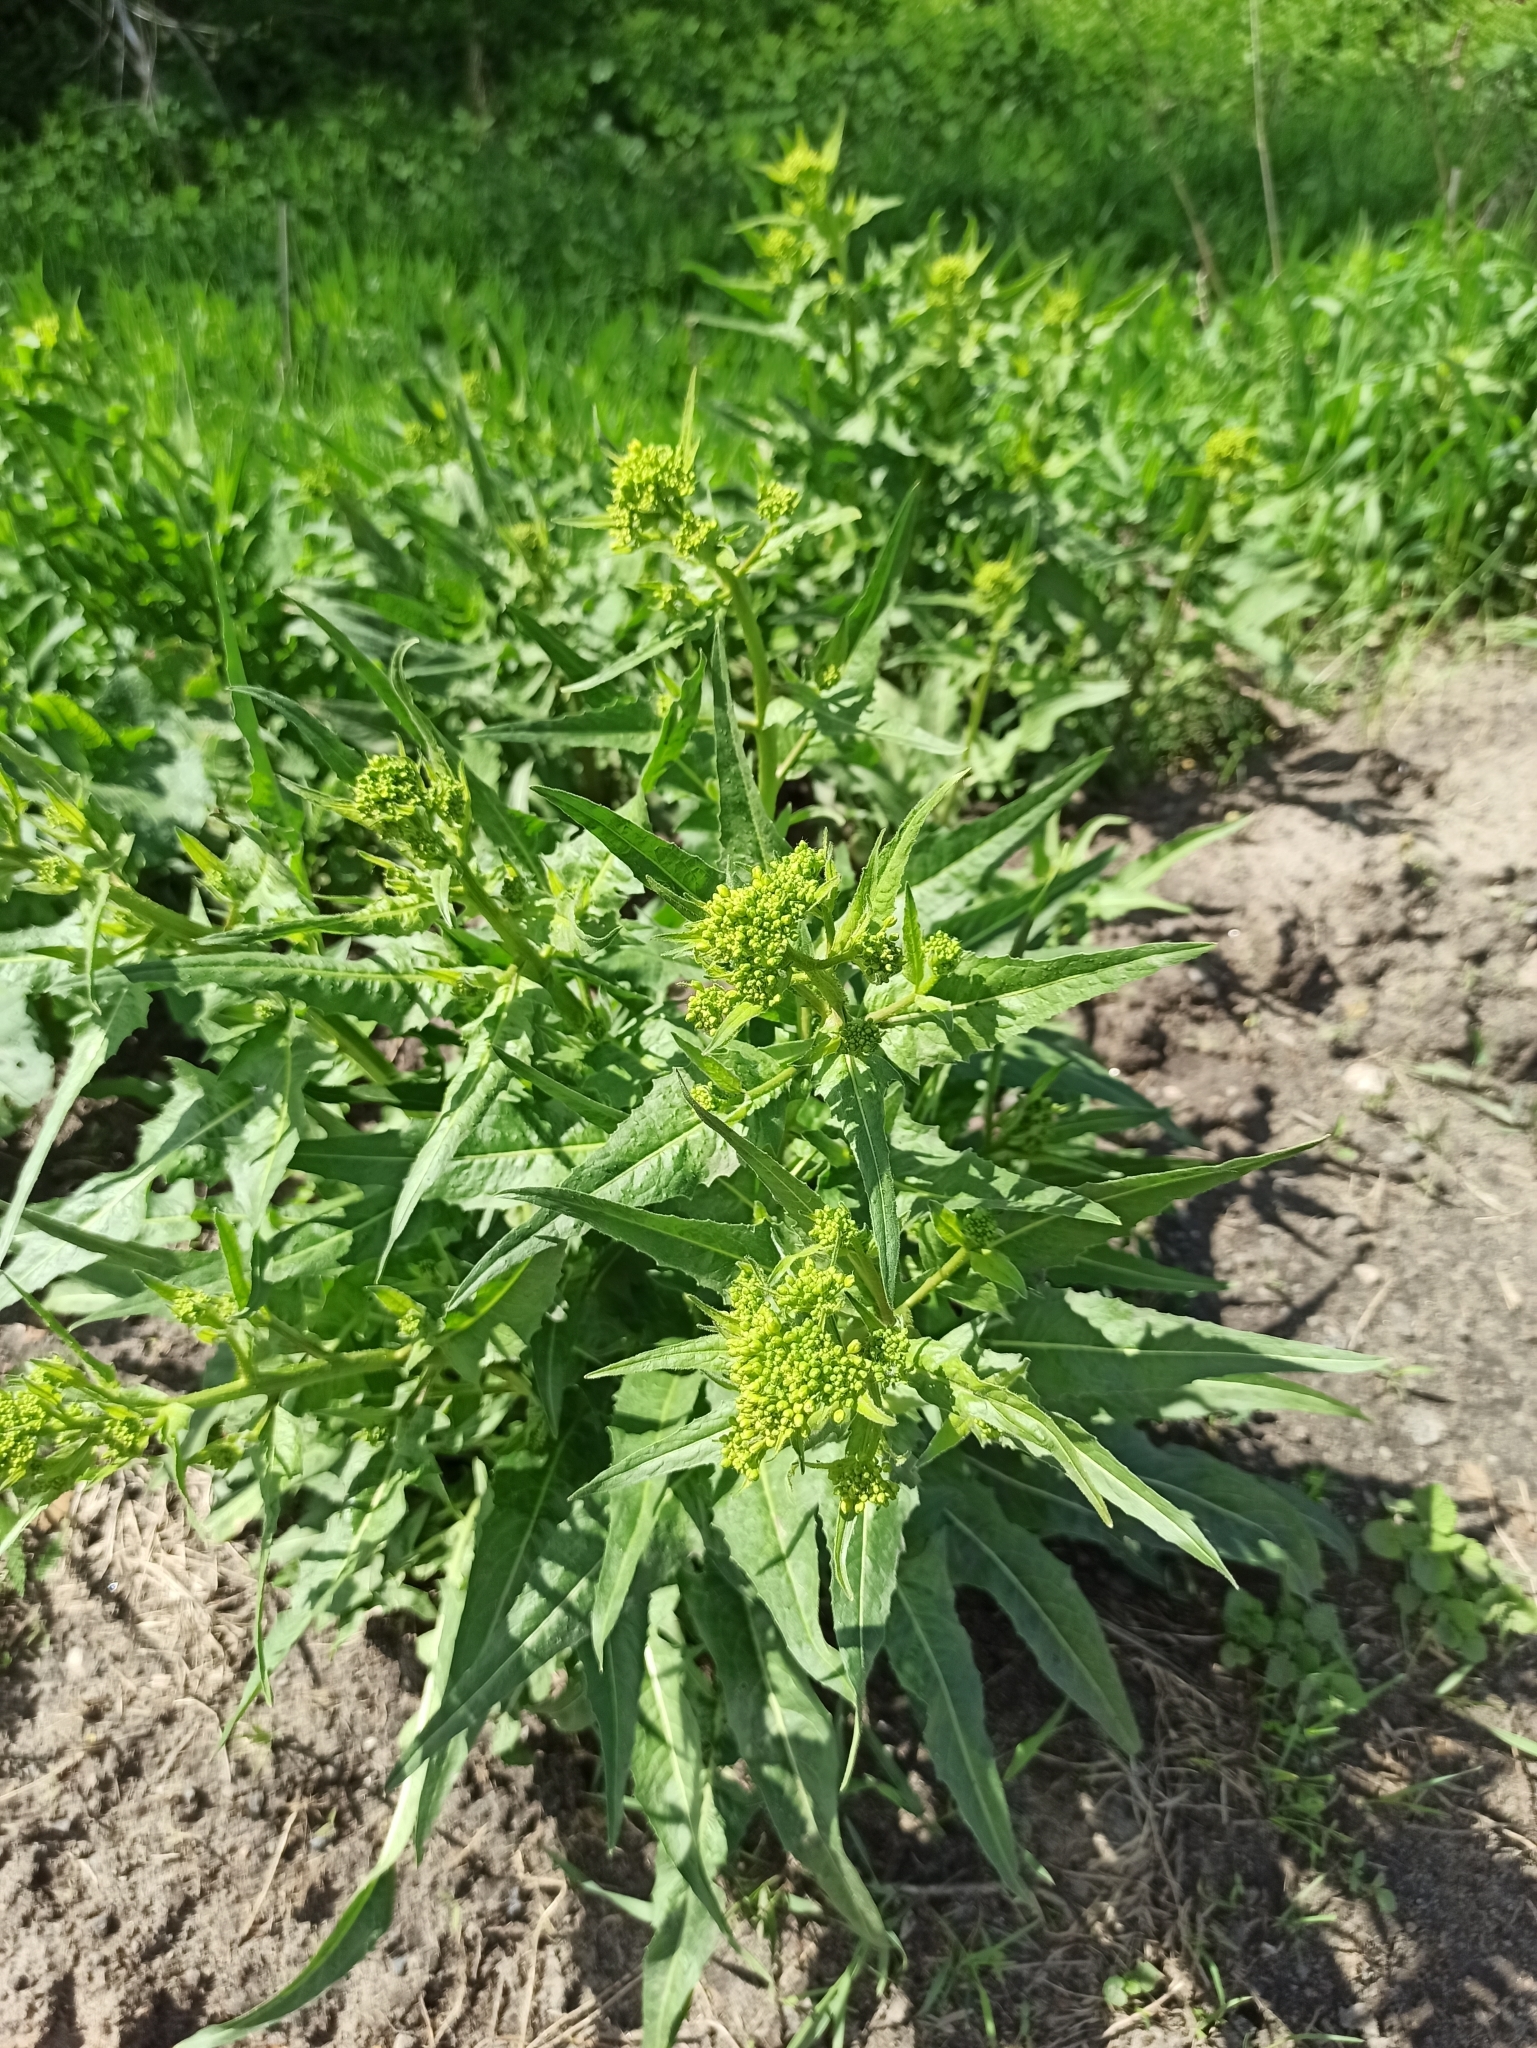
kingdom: Plantae
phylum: Tracheophyta
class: Magnoliopsida
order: Brassicales
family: Brassicaceae
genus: Bunias
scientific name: Bunias orientalis
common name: Warty-cabbage
